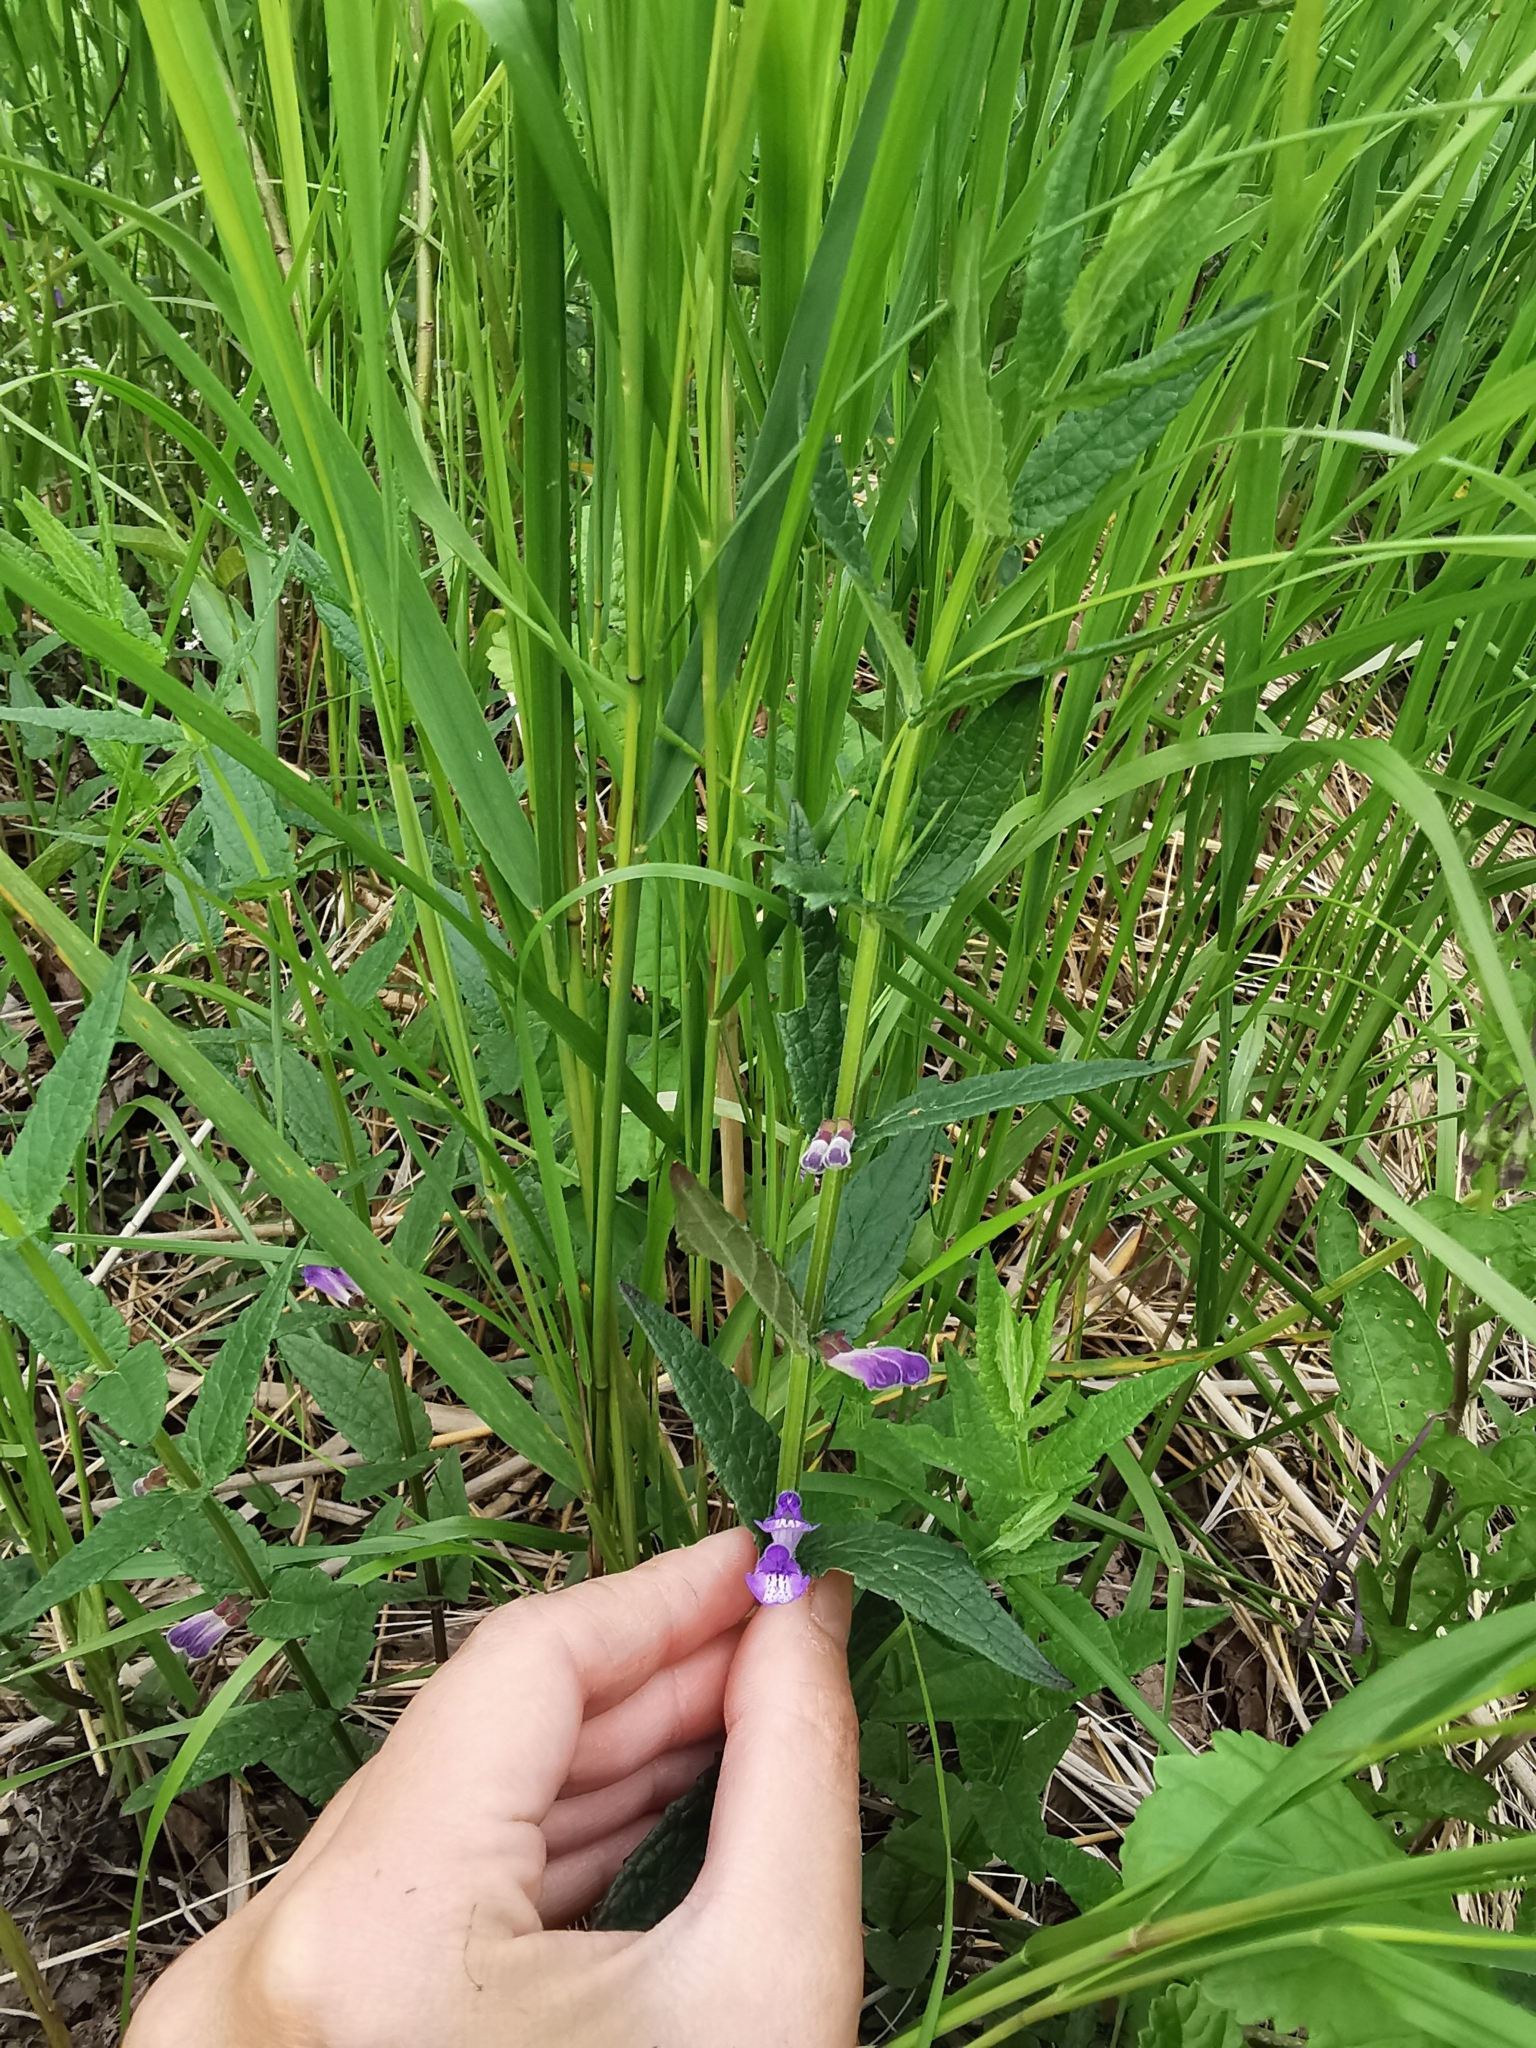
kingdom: Plantae
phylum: Tracheophyta
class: Magnoliopsida
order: Lamiales
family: Lamiaceae
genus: Scutellaria
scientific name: Scutellaria galericulata
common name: Skullcap
